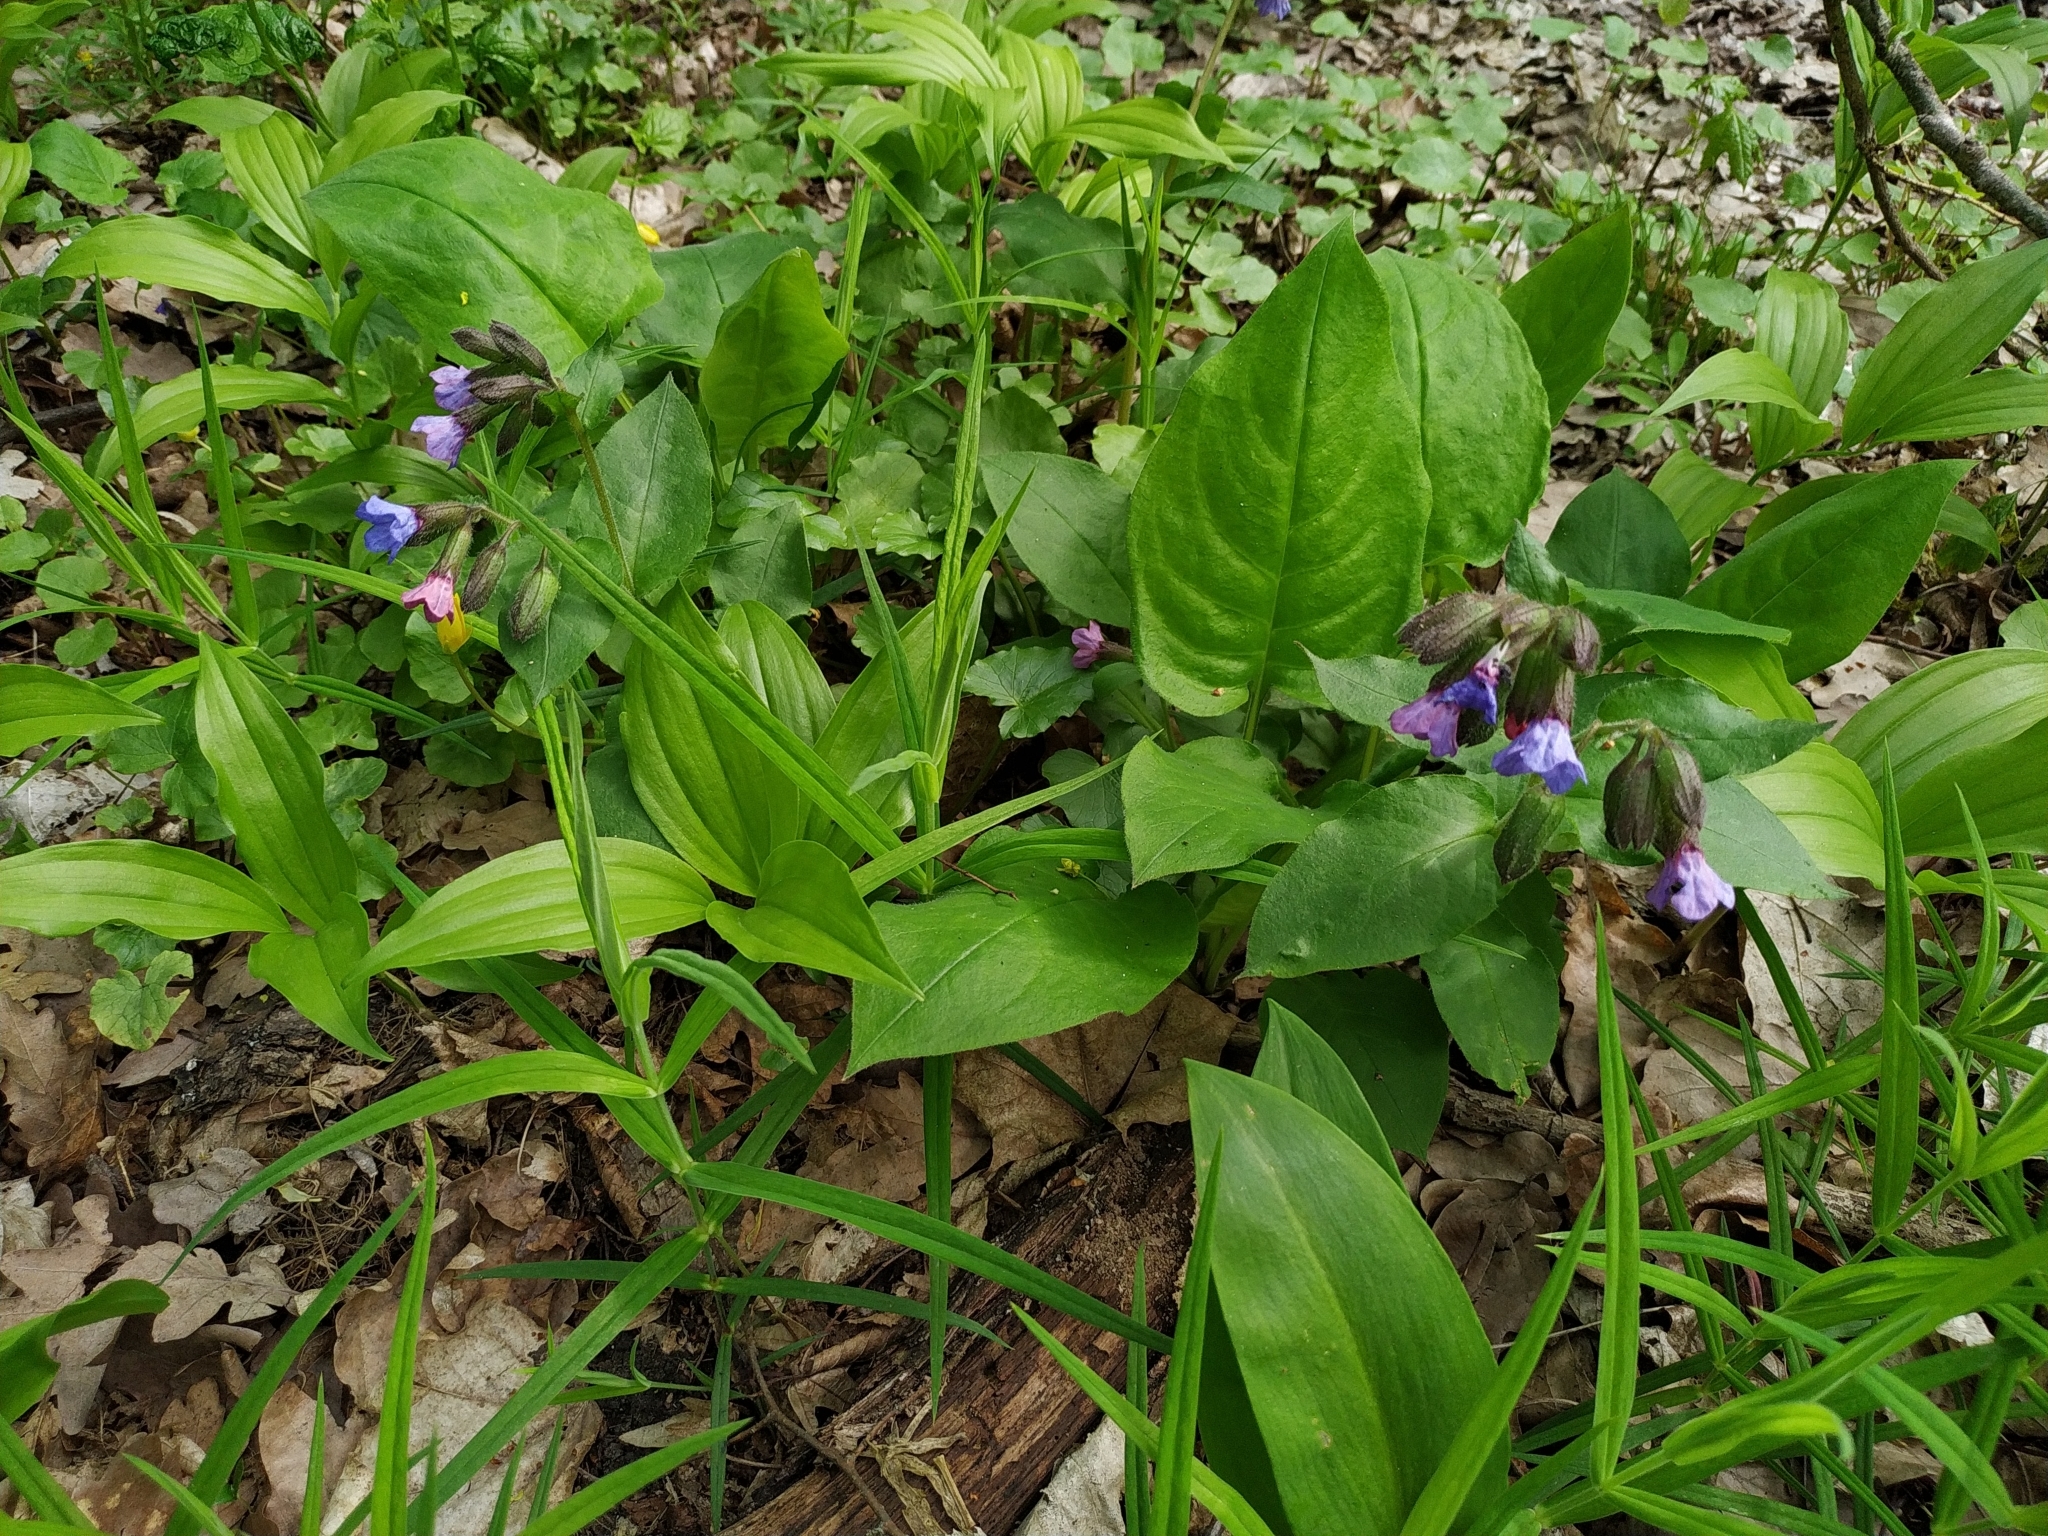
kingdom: Plantae
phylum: Tracheophyta
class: Magnoliopsida
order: Boraginales
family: Boraginaceae
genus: Pulmonaria
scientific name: Pulmonaria obscura
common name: Suffolk lungwort
